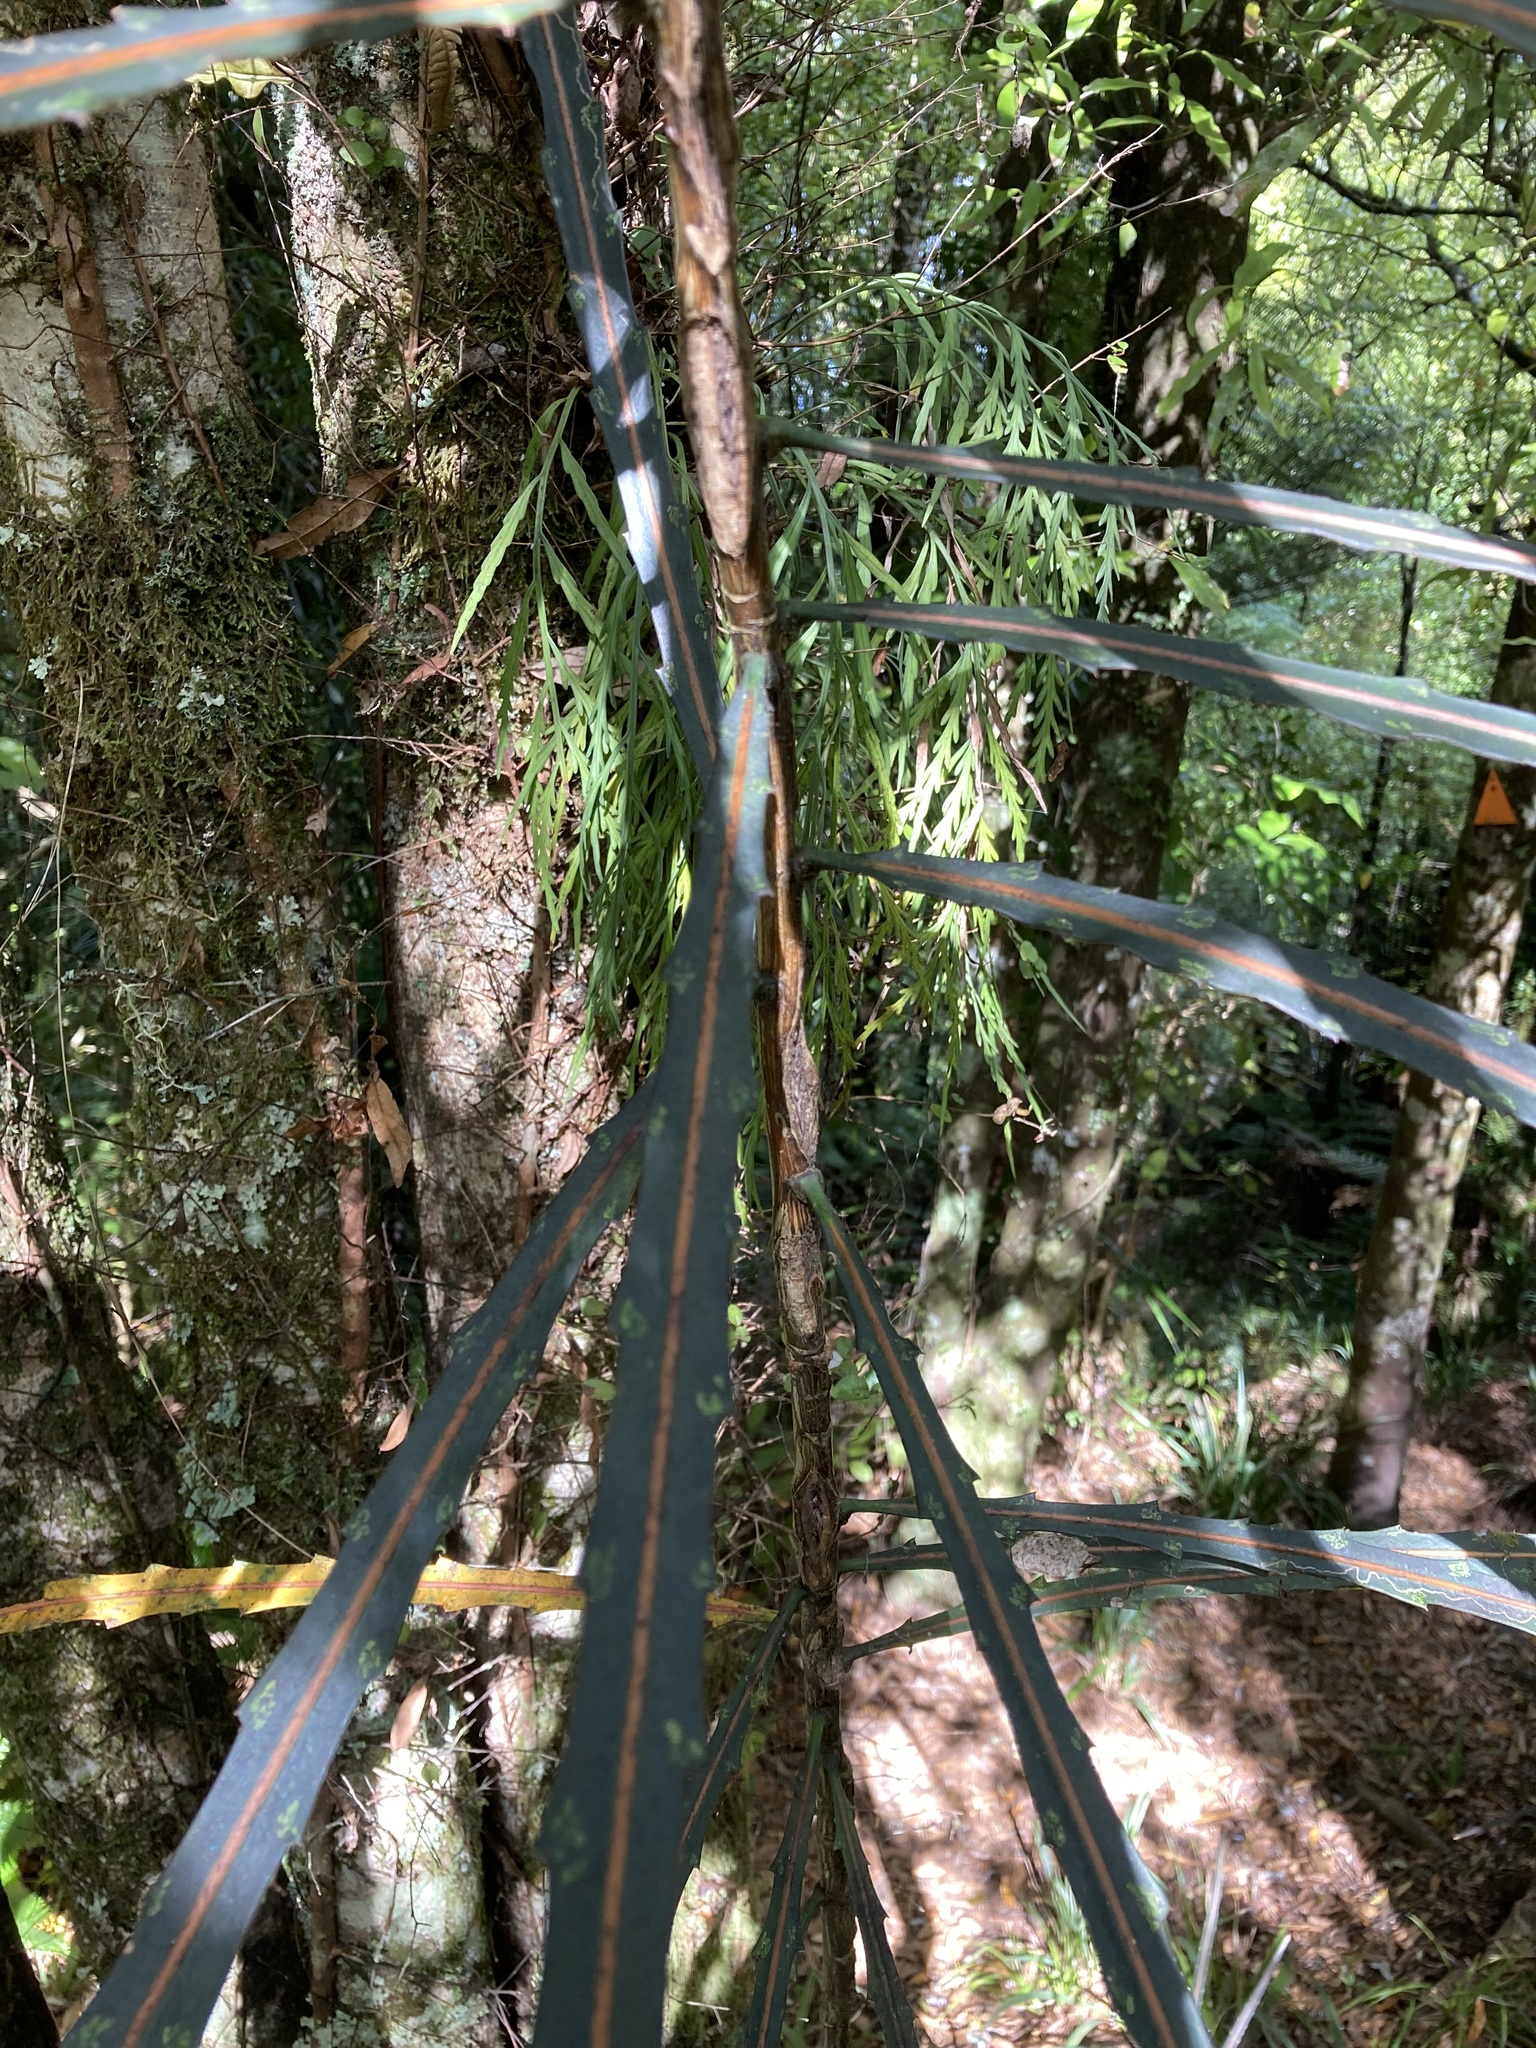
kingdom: Plantae
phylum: Tracheophyta
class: Magnoliopsida
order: Apiales
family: Araliaceae
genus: Pseudopanax
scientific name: Pseudopanax crassifolius
